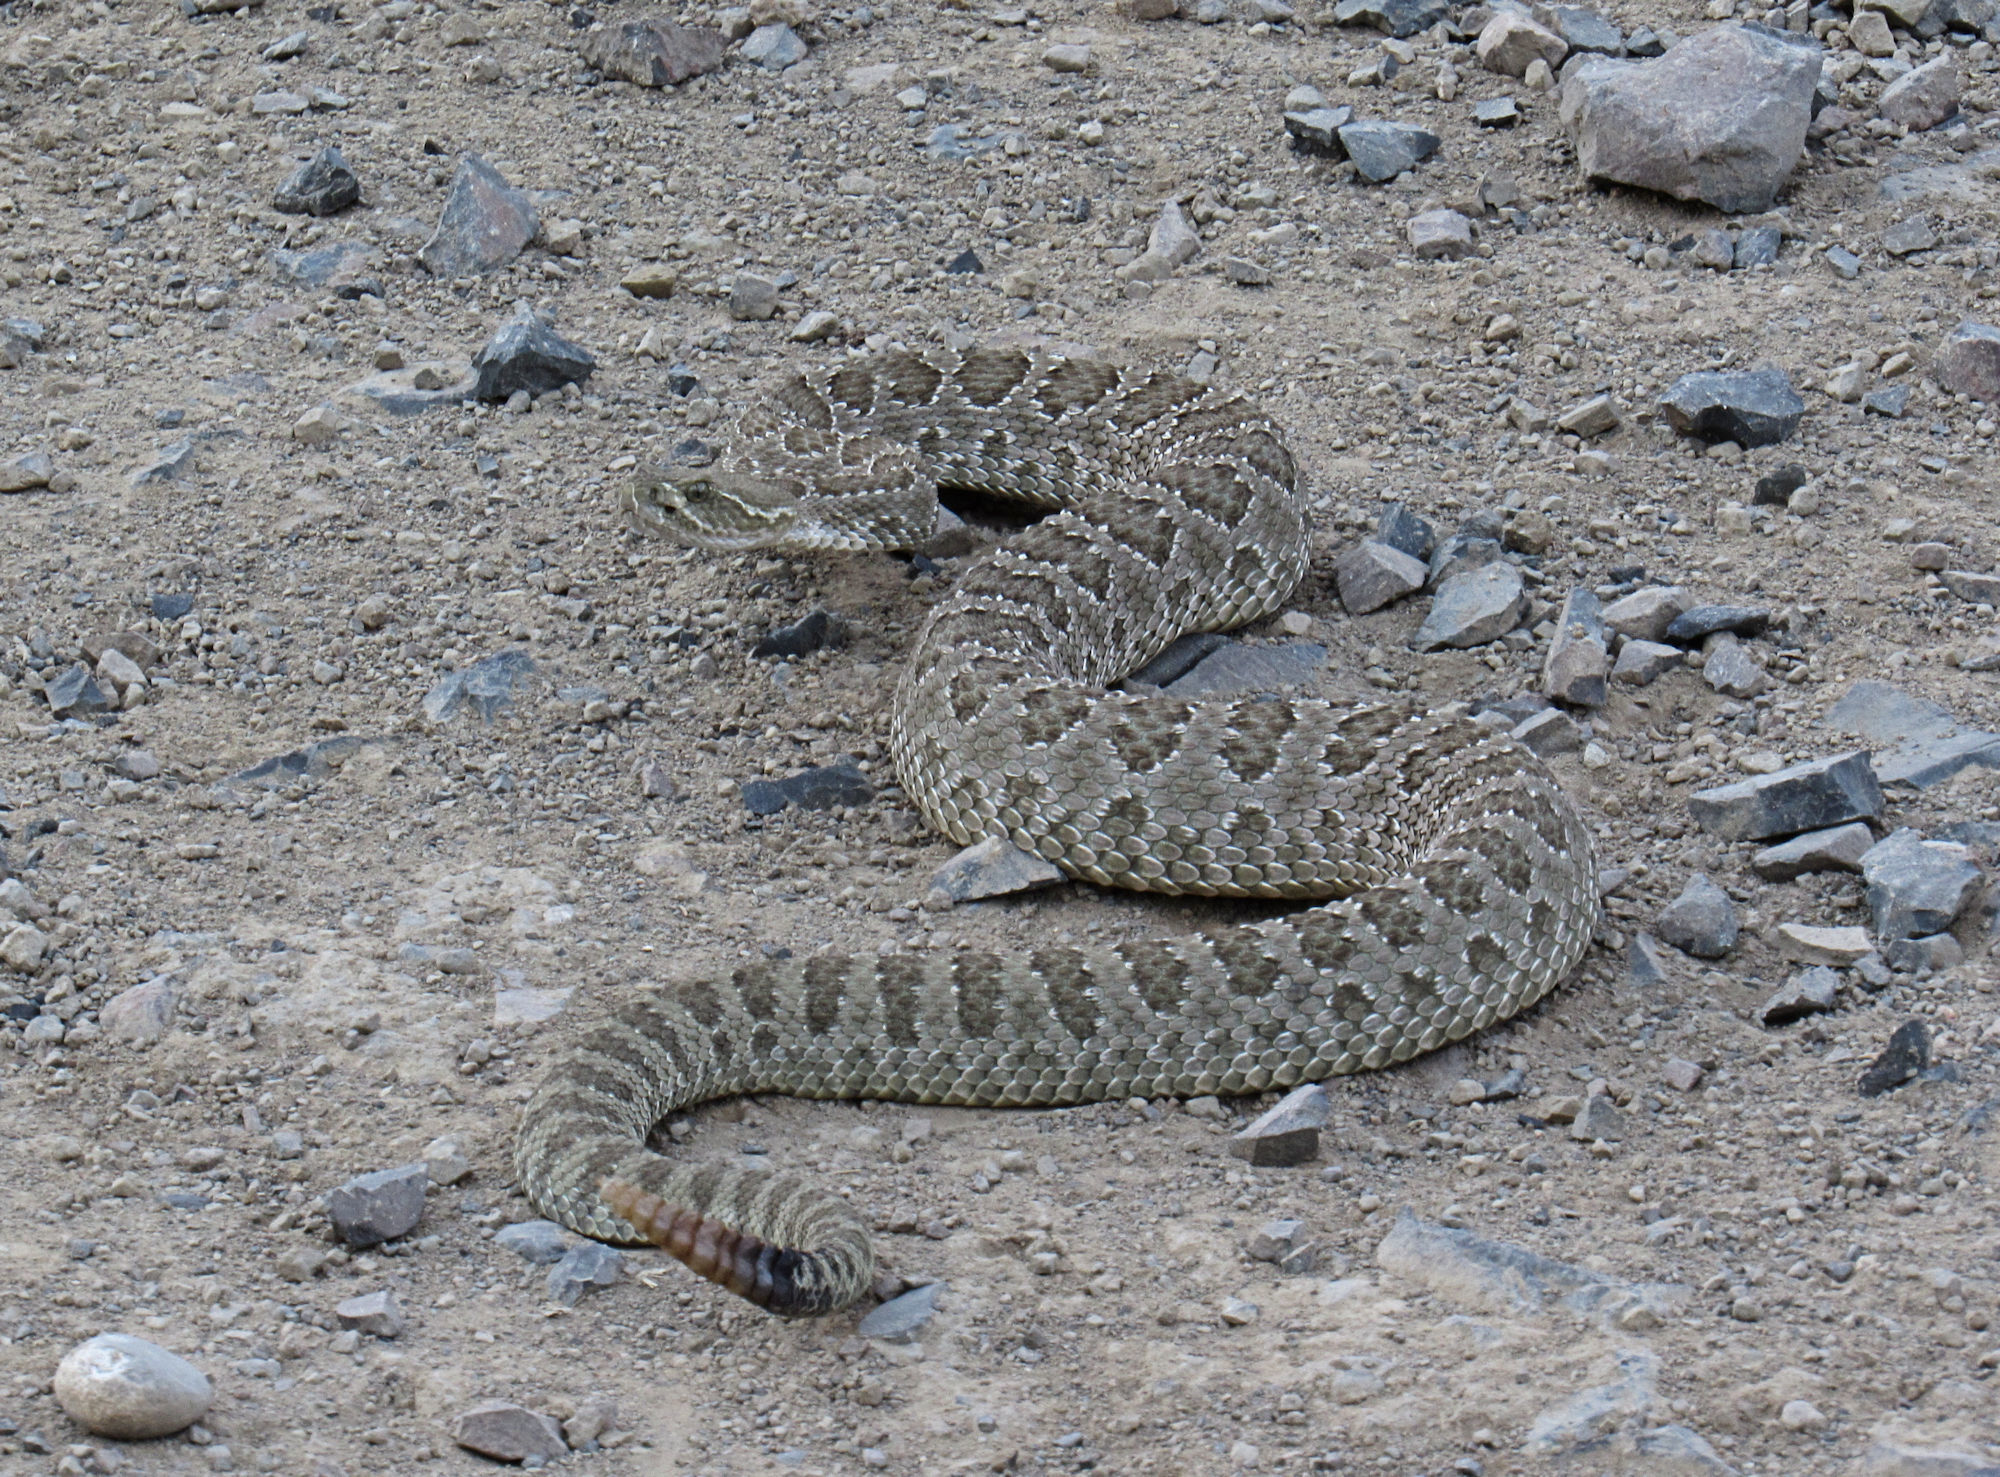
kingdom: Animalia
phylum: Chordata
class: Squamata
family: Viperidae
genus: Crotalus
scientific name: Crotalus viridis
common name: Prairie rattlesnake
